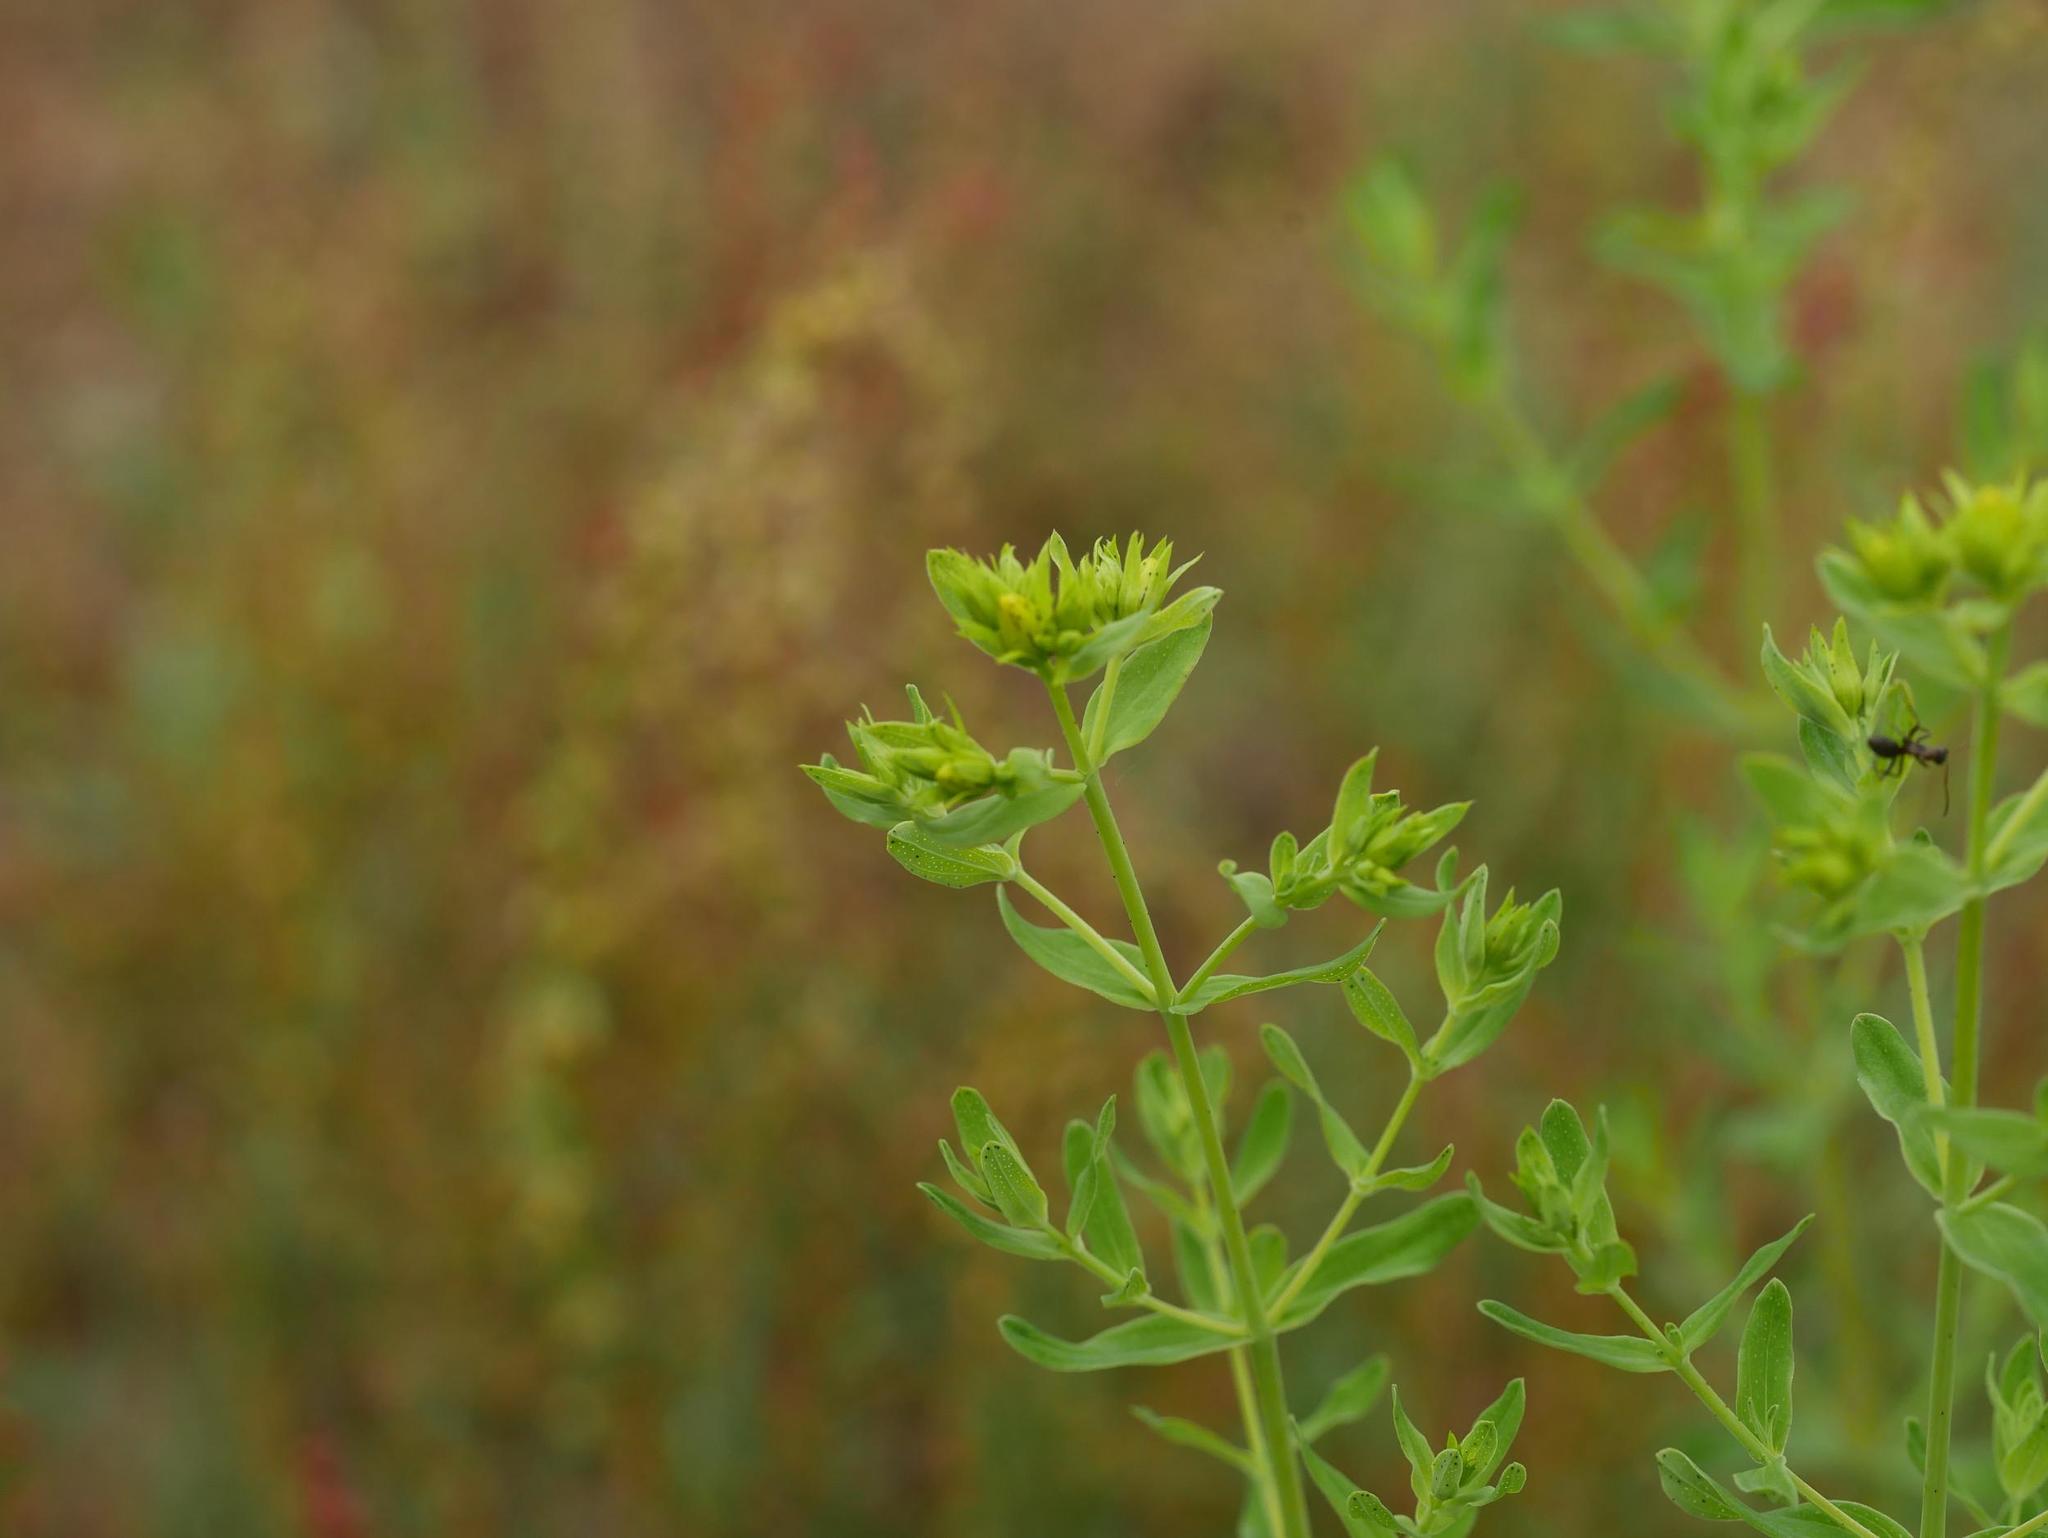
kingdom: Plantae
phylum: Tracheophyta
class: Magnoliopsida
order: Malpighiales
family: Hypericaceae
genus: Hypericum
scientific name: Hypericum perforatum
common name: Common st. johnswort
